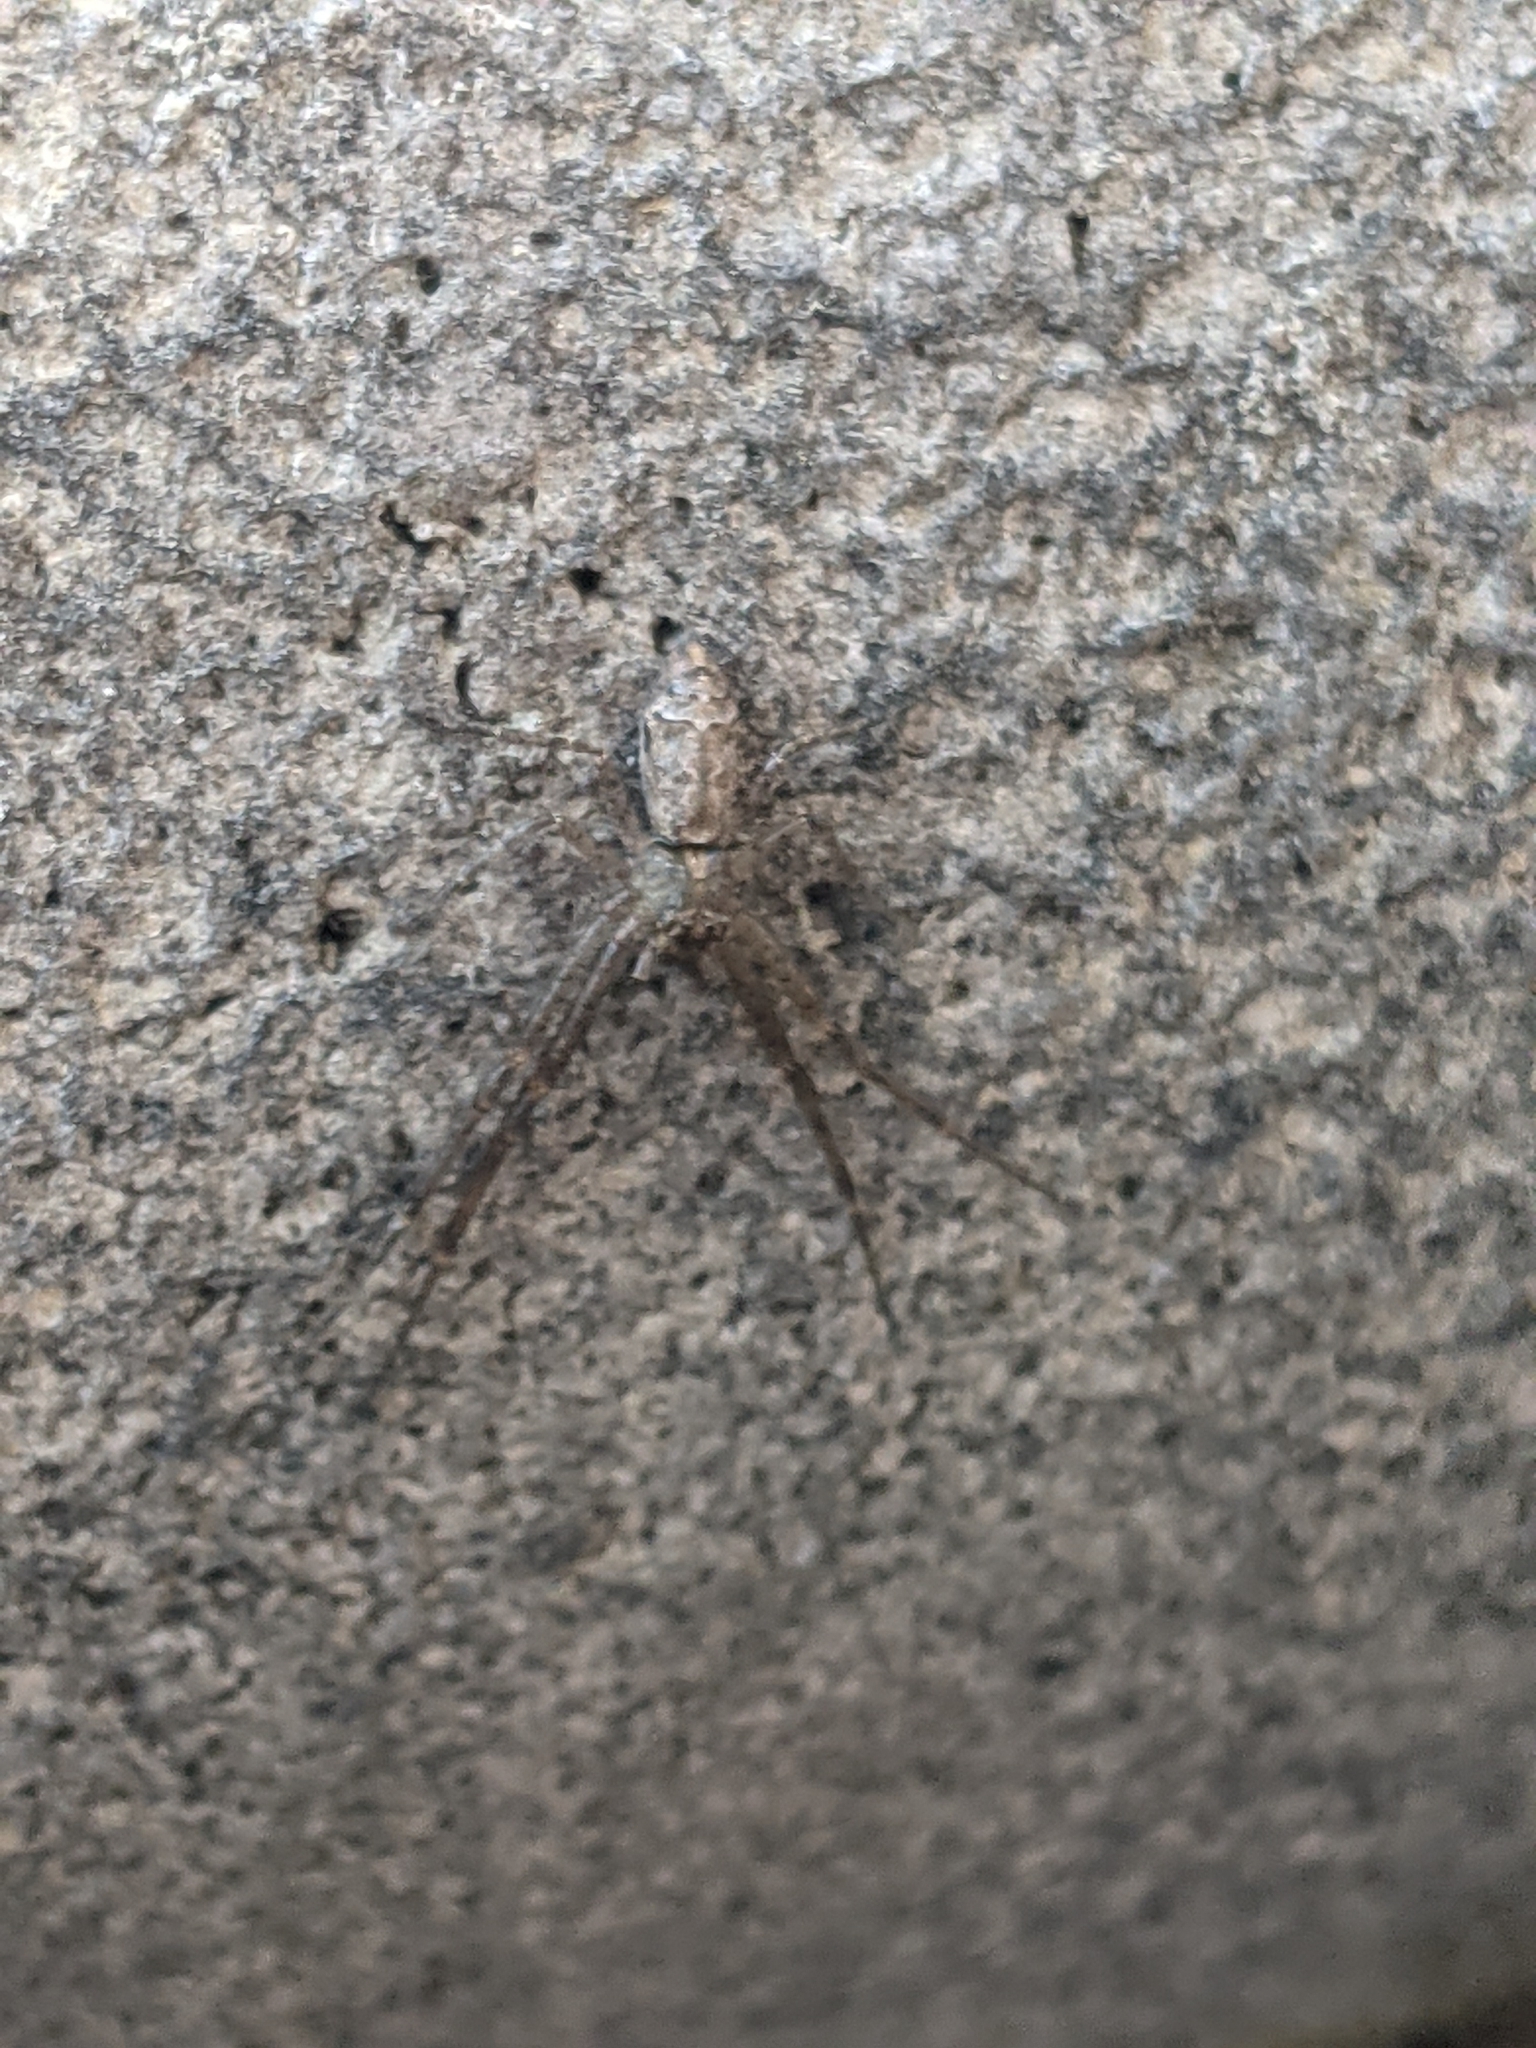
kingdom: Animalia
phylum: Arthropoda
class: Arachnida
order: Araneae
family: Thomisidae
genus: Tmarus
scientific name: Tmarus angulatus
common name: Tuberculated crab spider
